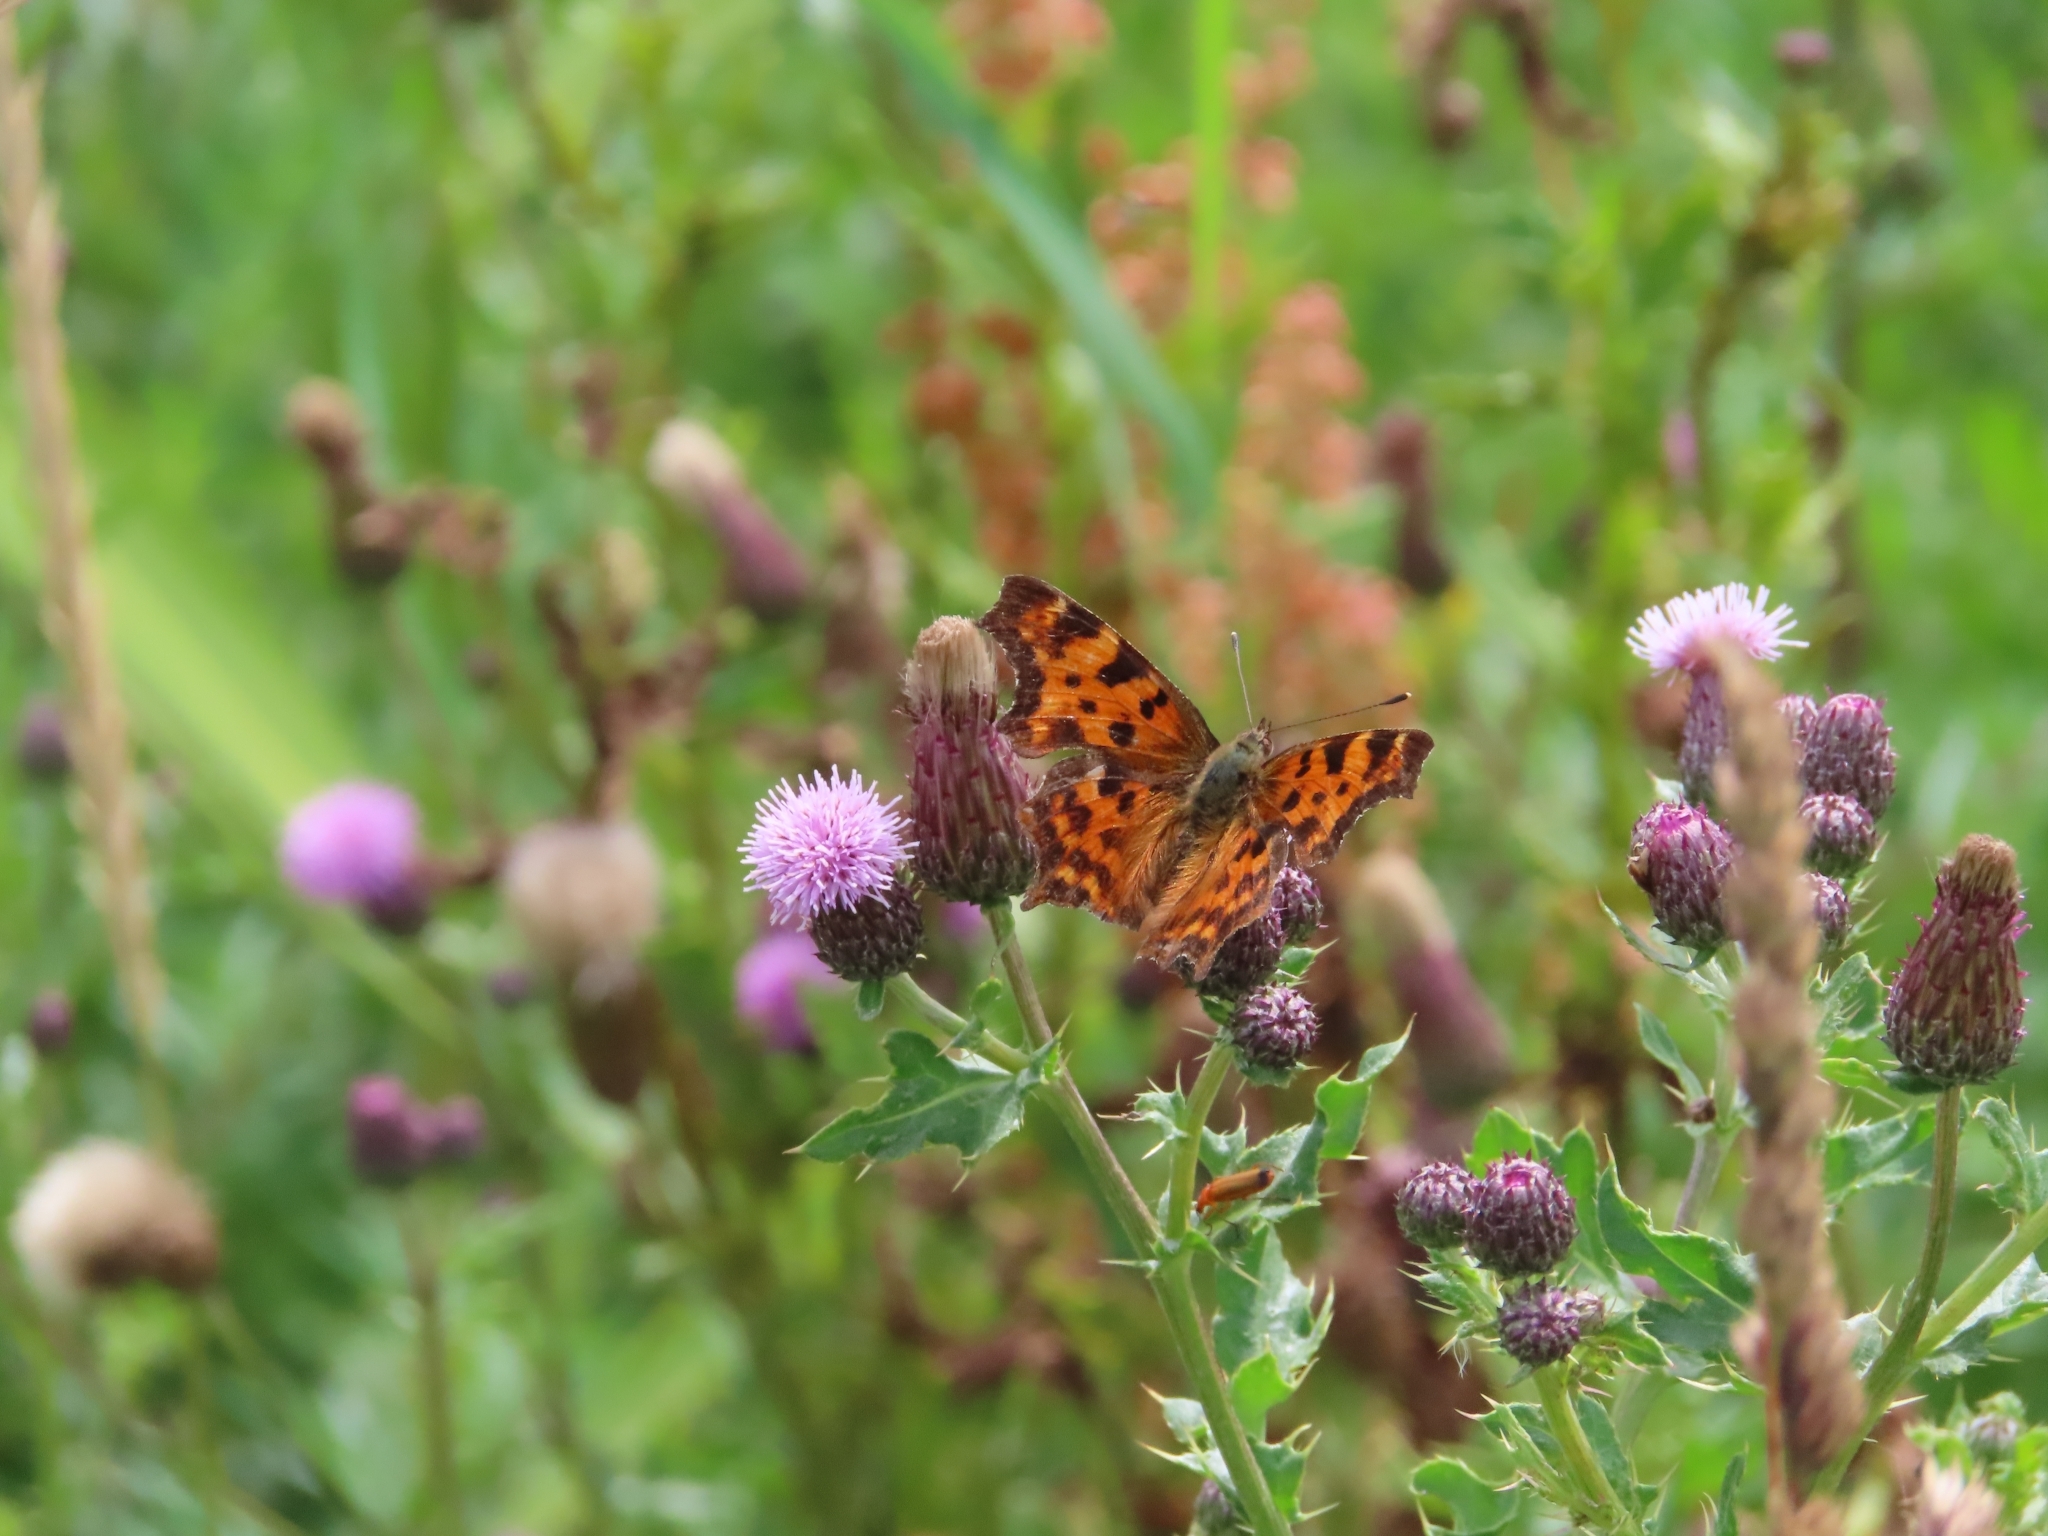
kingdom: Animalia
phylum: Arthropoda
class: Insecta
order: Lepidoptera
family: Nymphalidae
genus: Polygonia
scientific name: Polygonia c-album
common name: Comma
